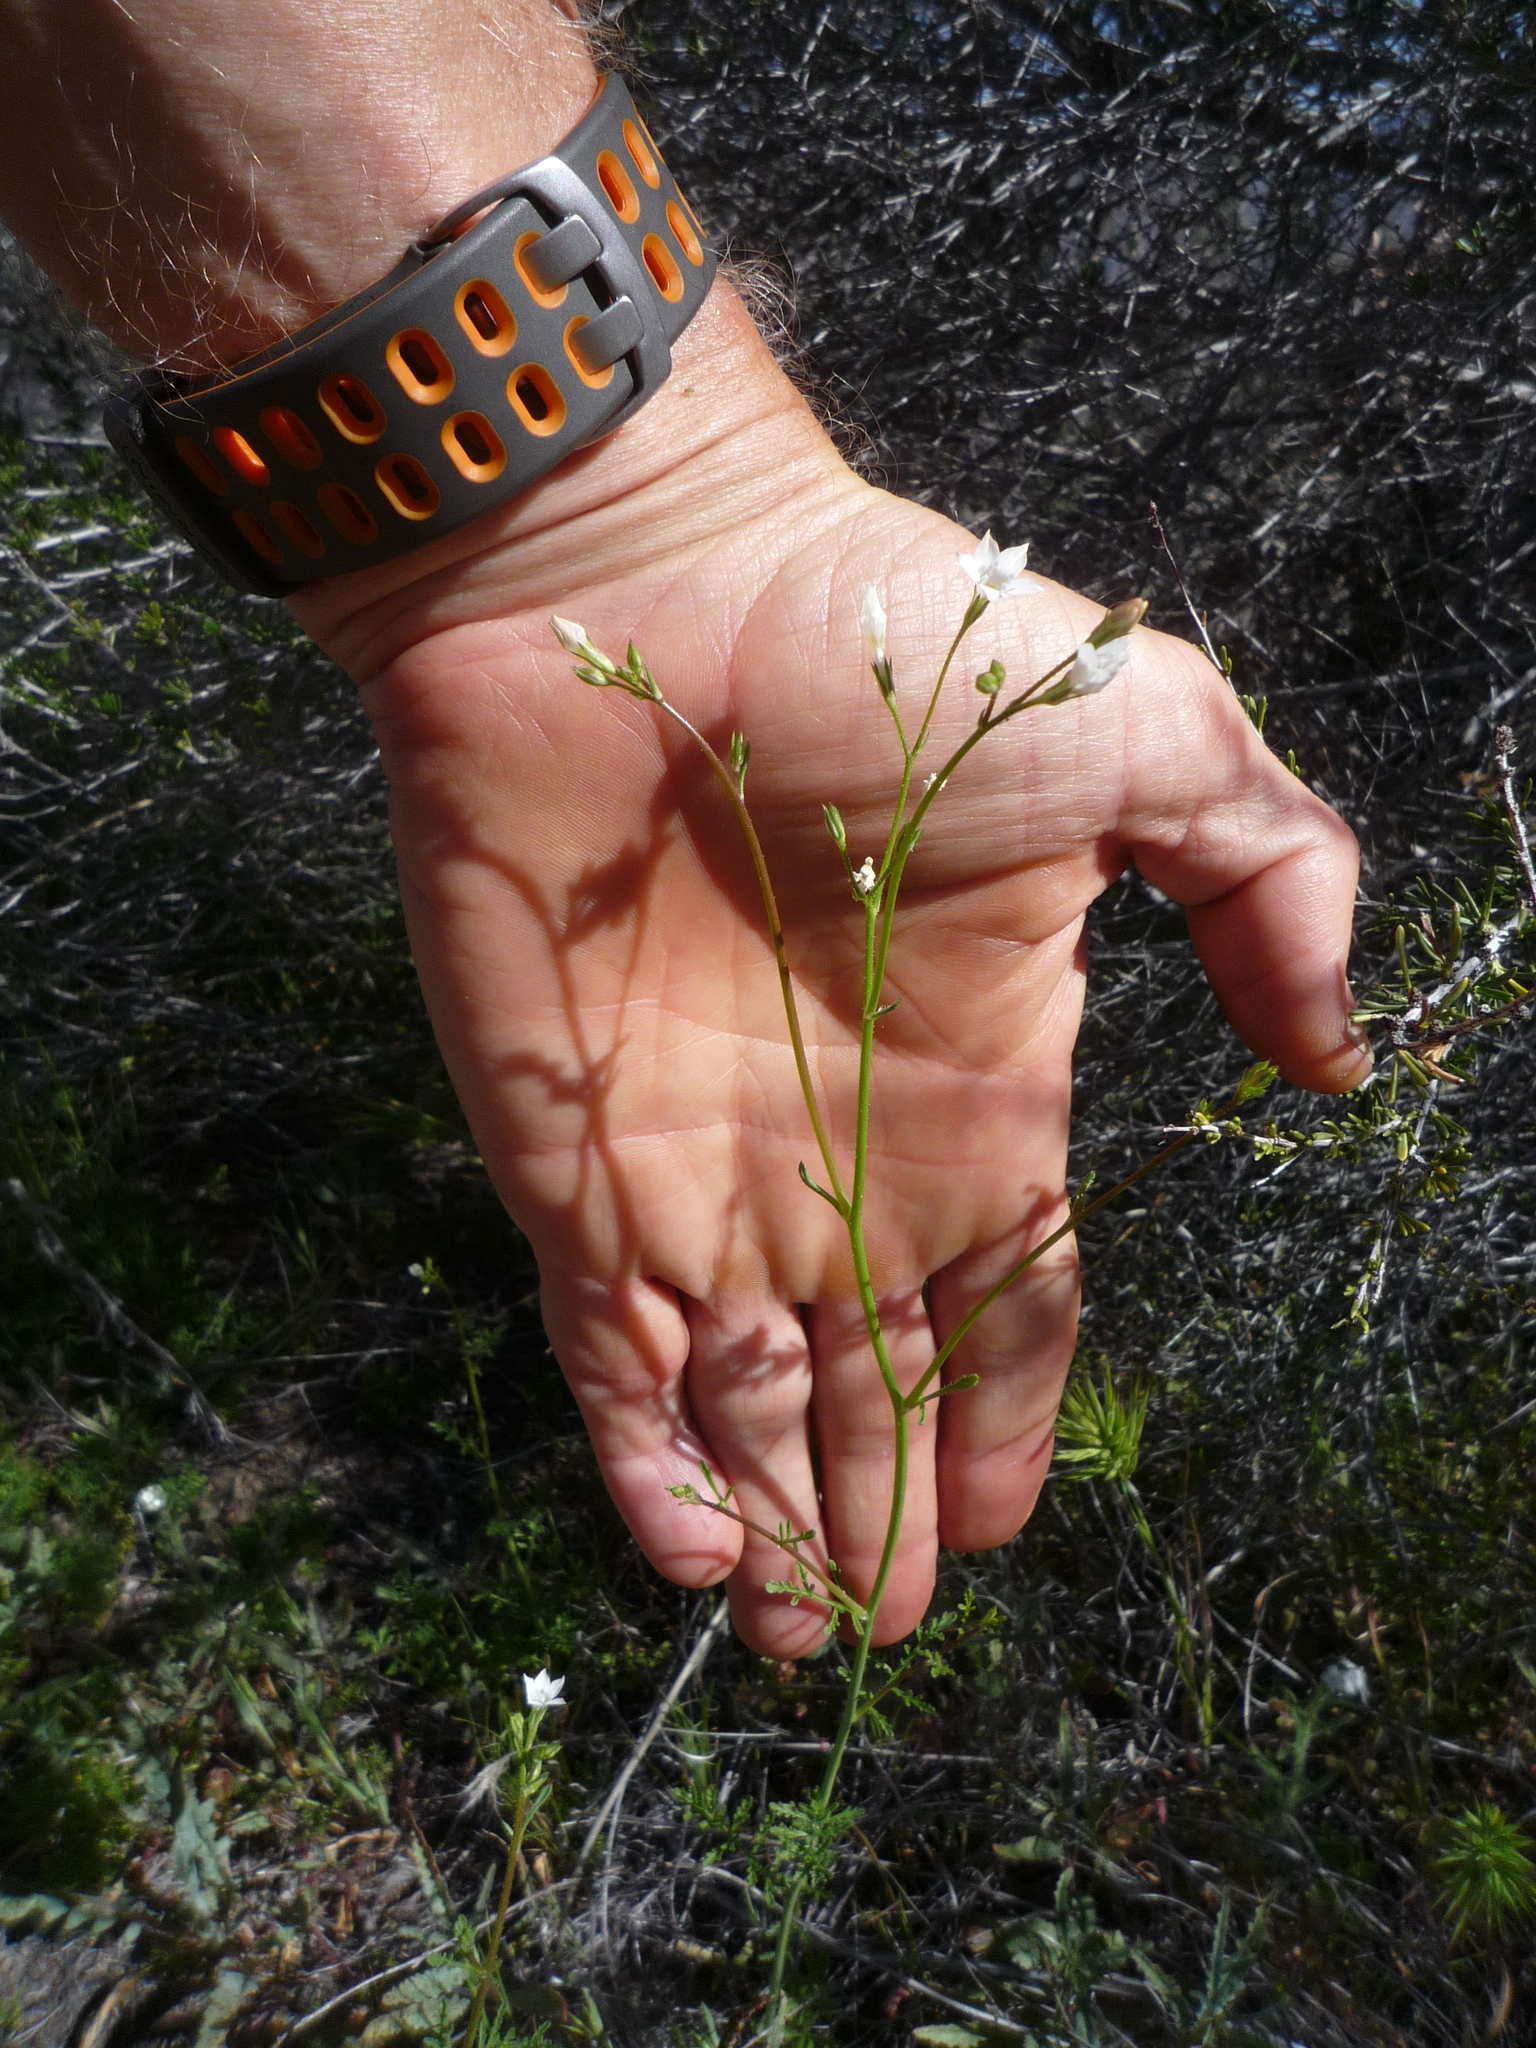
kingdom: Plantae
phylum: Tracheophyta
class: Magnoliopsida
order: Ericales
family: Polemoniaceae
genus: Gilia
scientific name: Gilia angelensis
